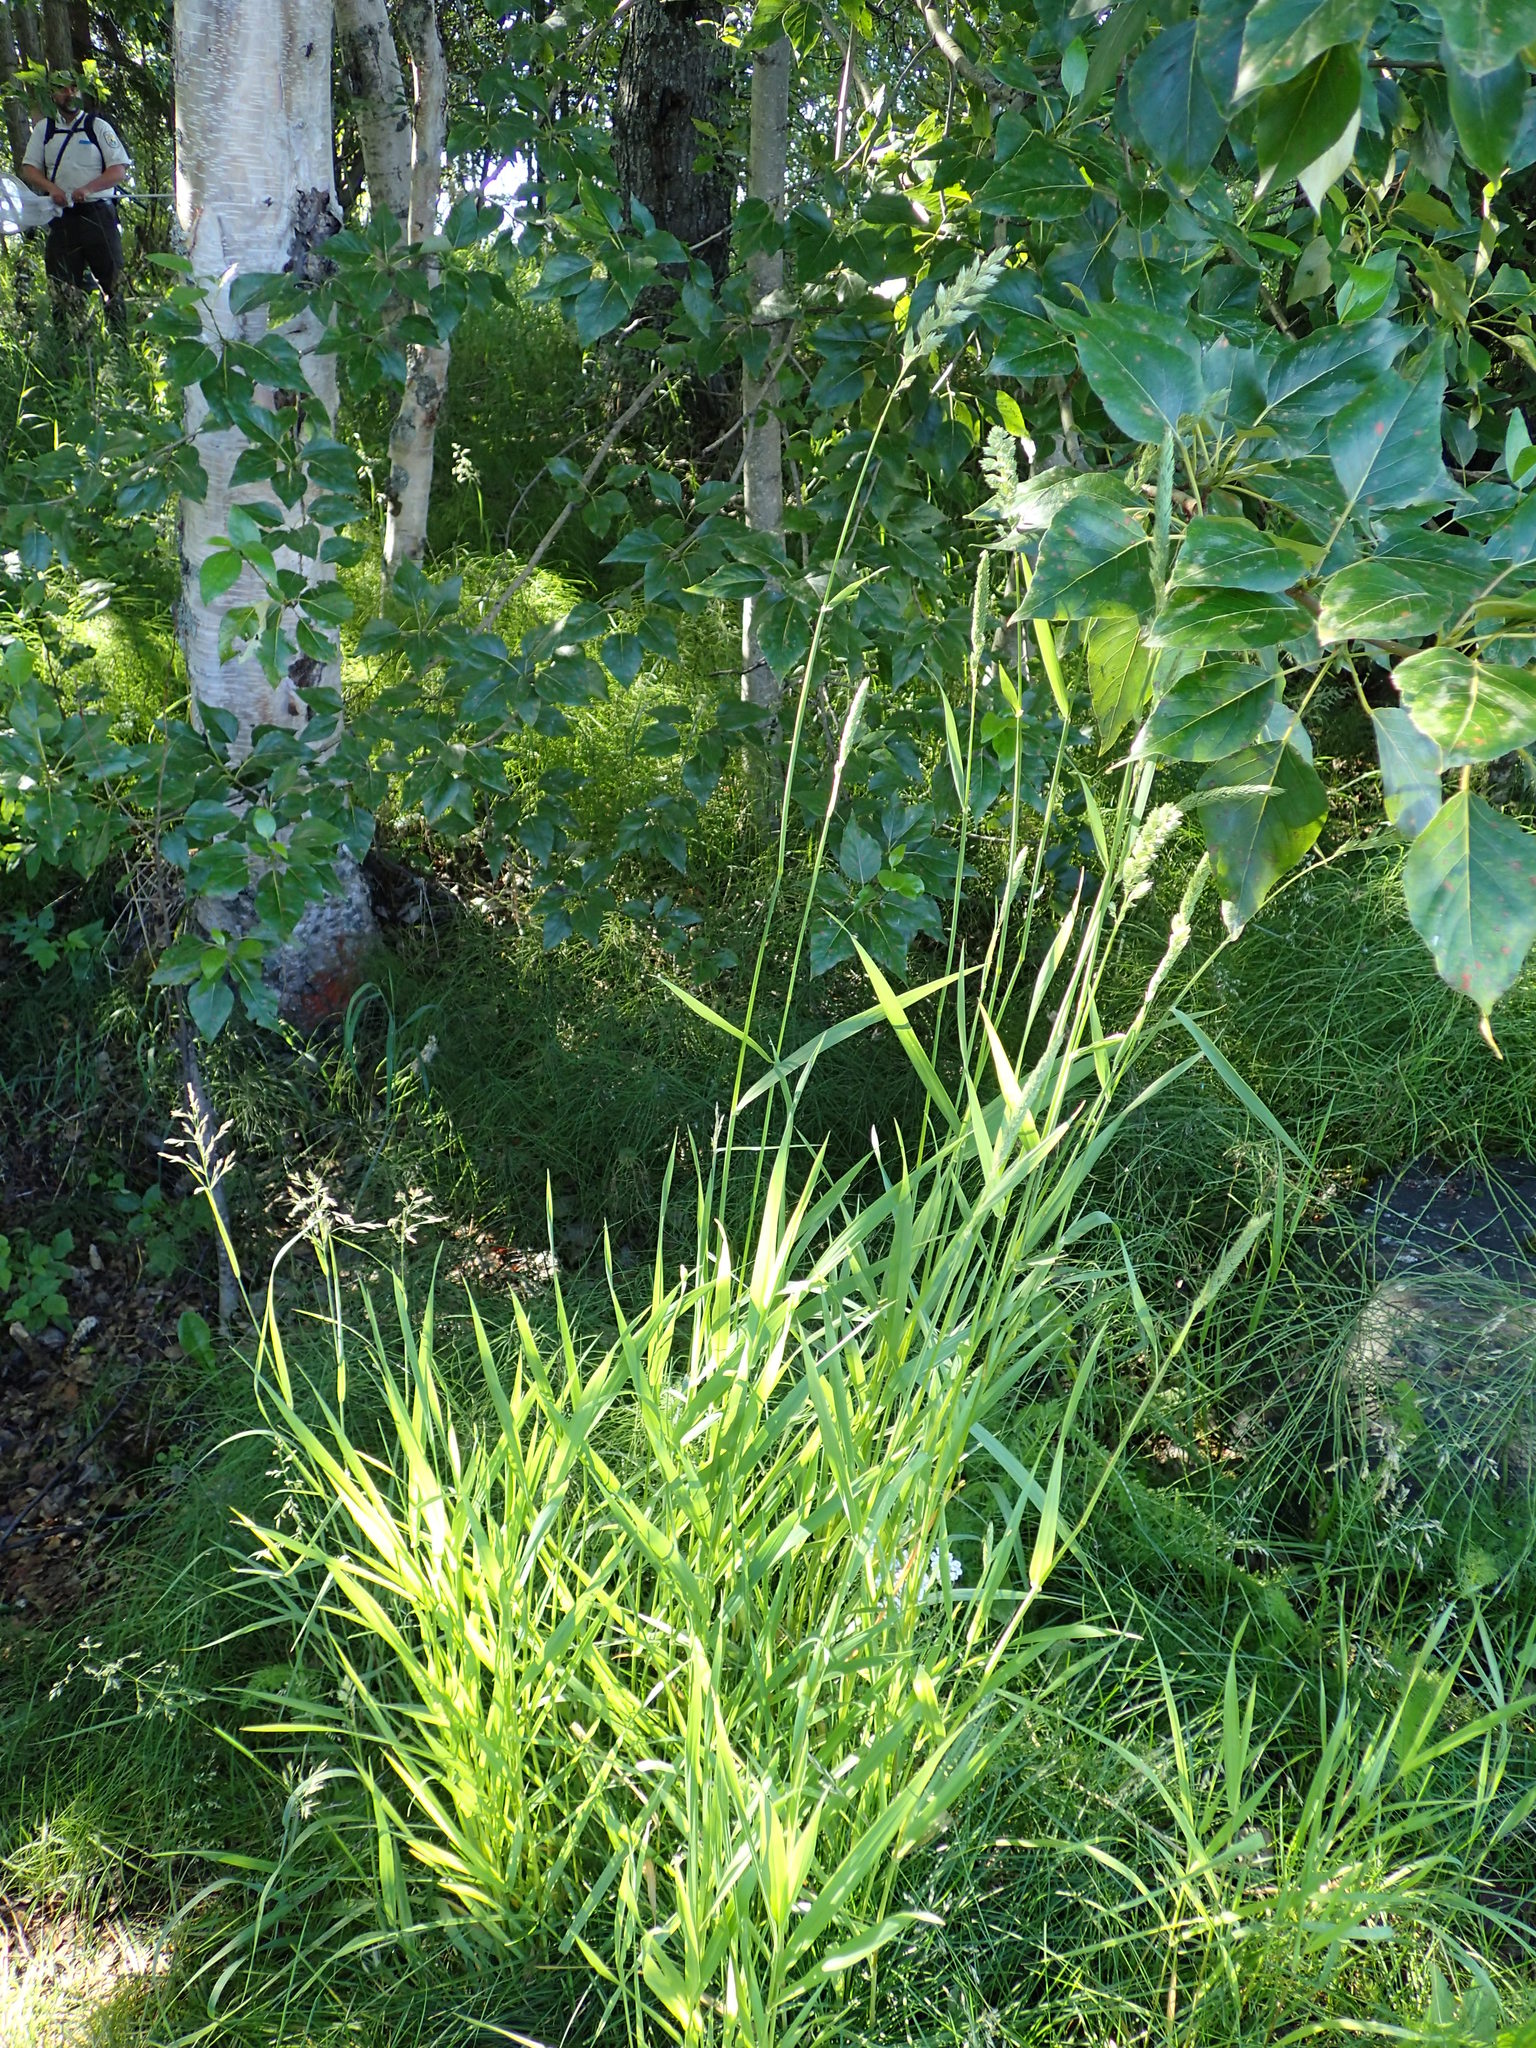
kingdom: Plantae
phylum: Tracheophyta
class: Liliopsida
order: Poales
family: Poaceae
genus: Phalaris
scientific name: Phalaris arundinacea
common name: Reed canary-grass
